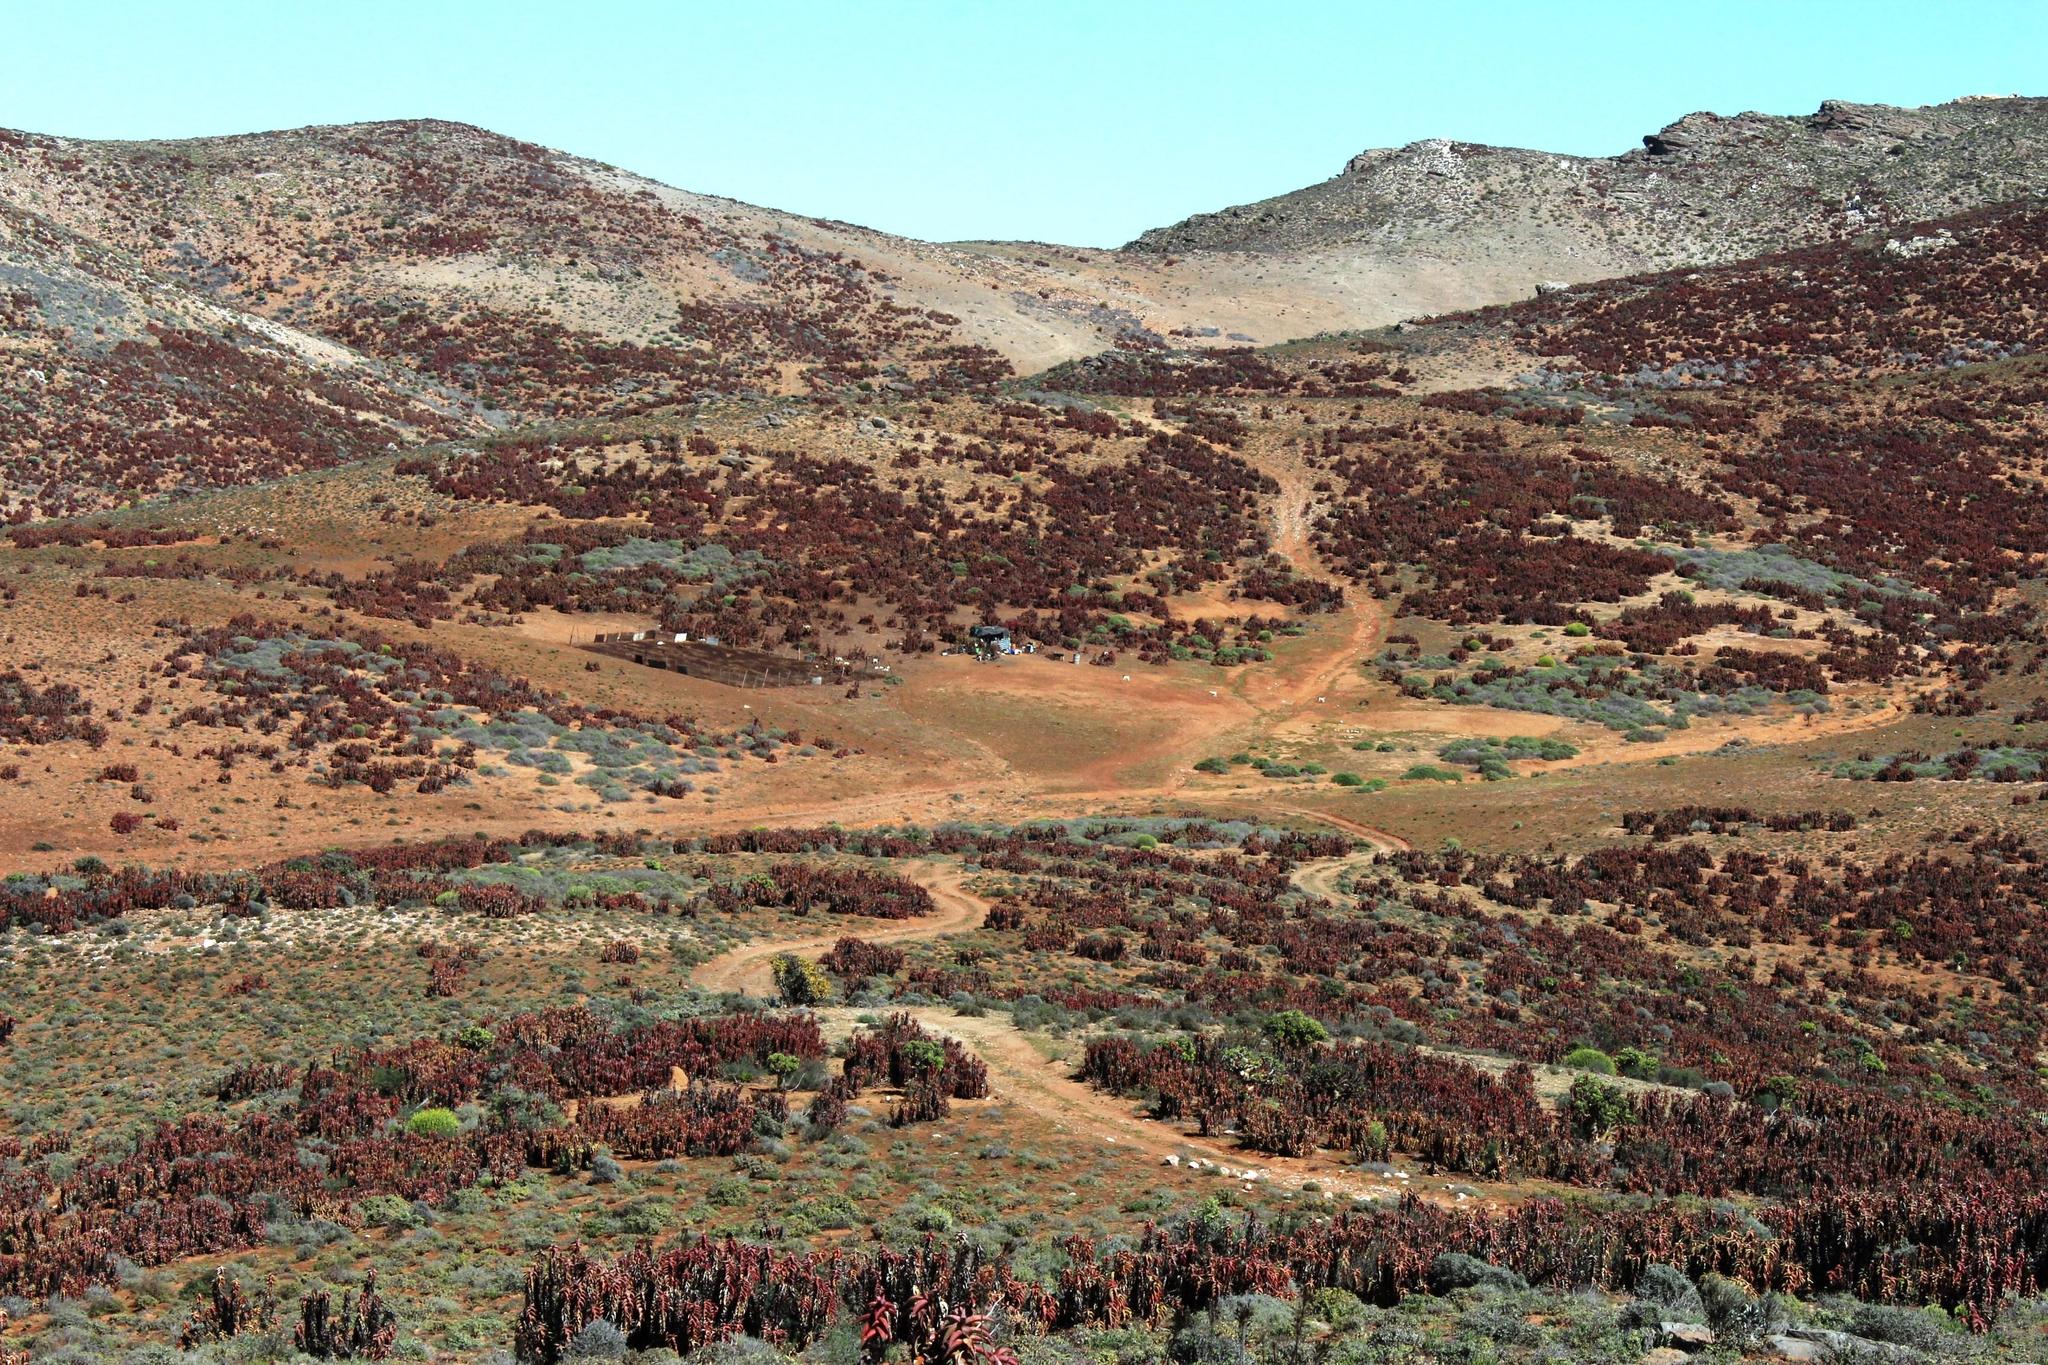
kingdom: Plantae
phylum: Tracheophyta
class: Liliopsida
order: Asparagales
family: Asphodelaceae
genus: Aloe
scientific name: Aloe pearsonii
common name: Pearson's aloe
